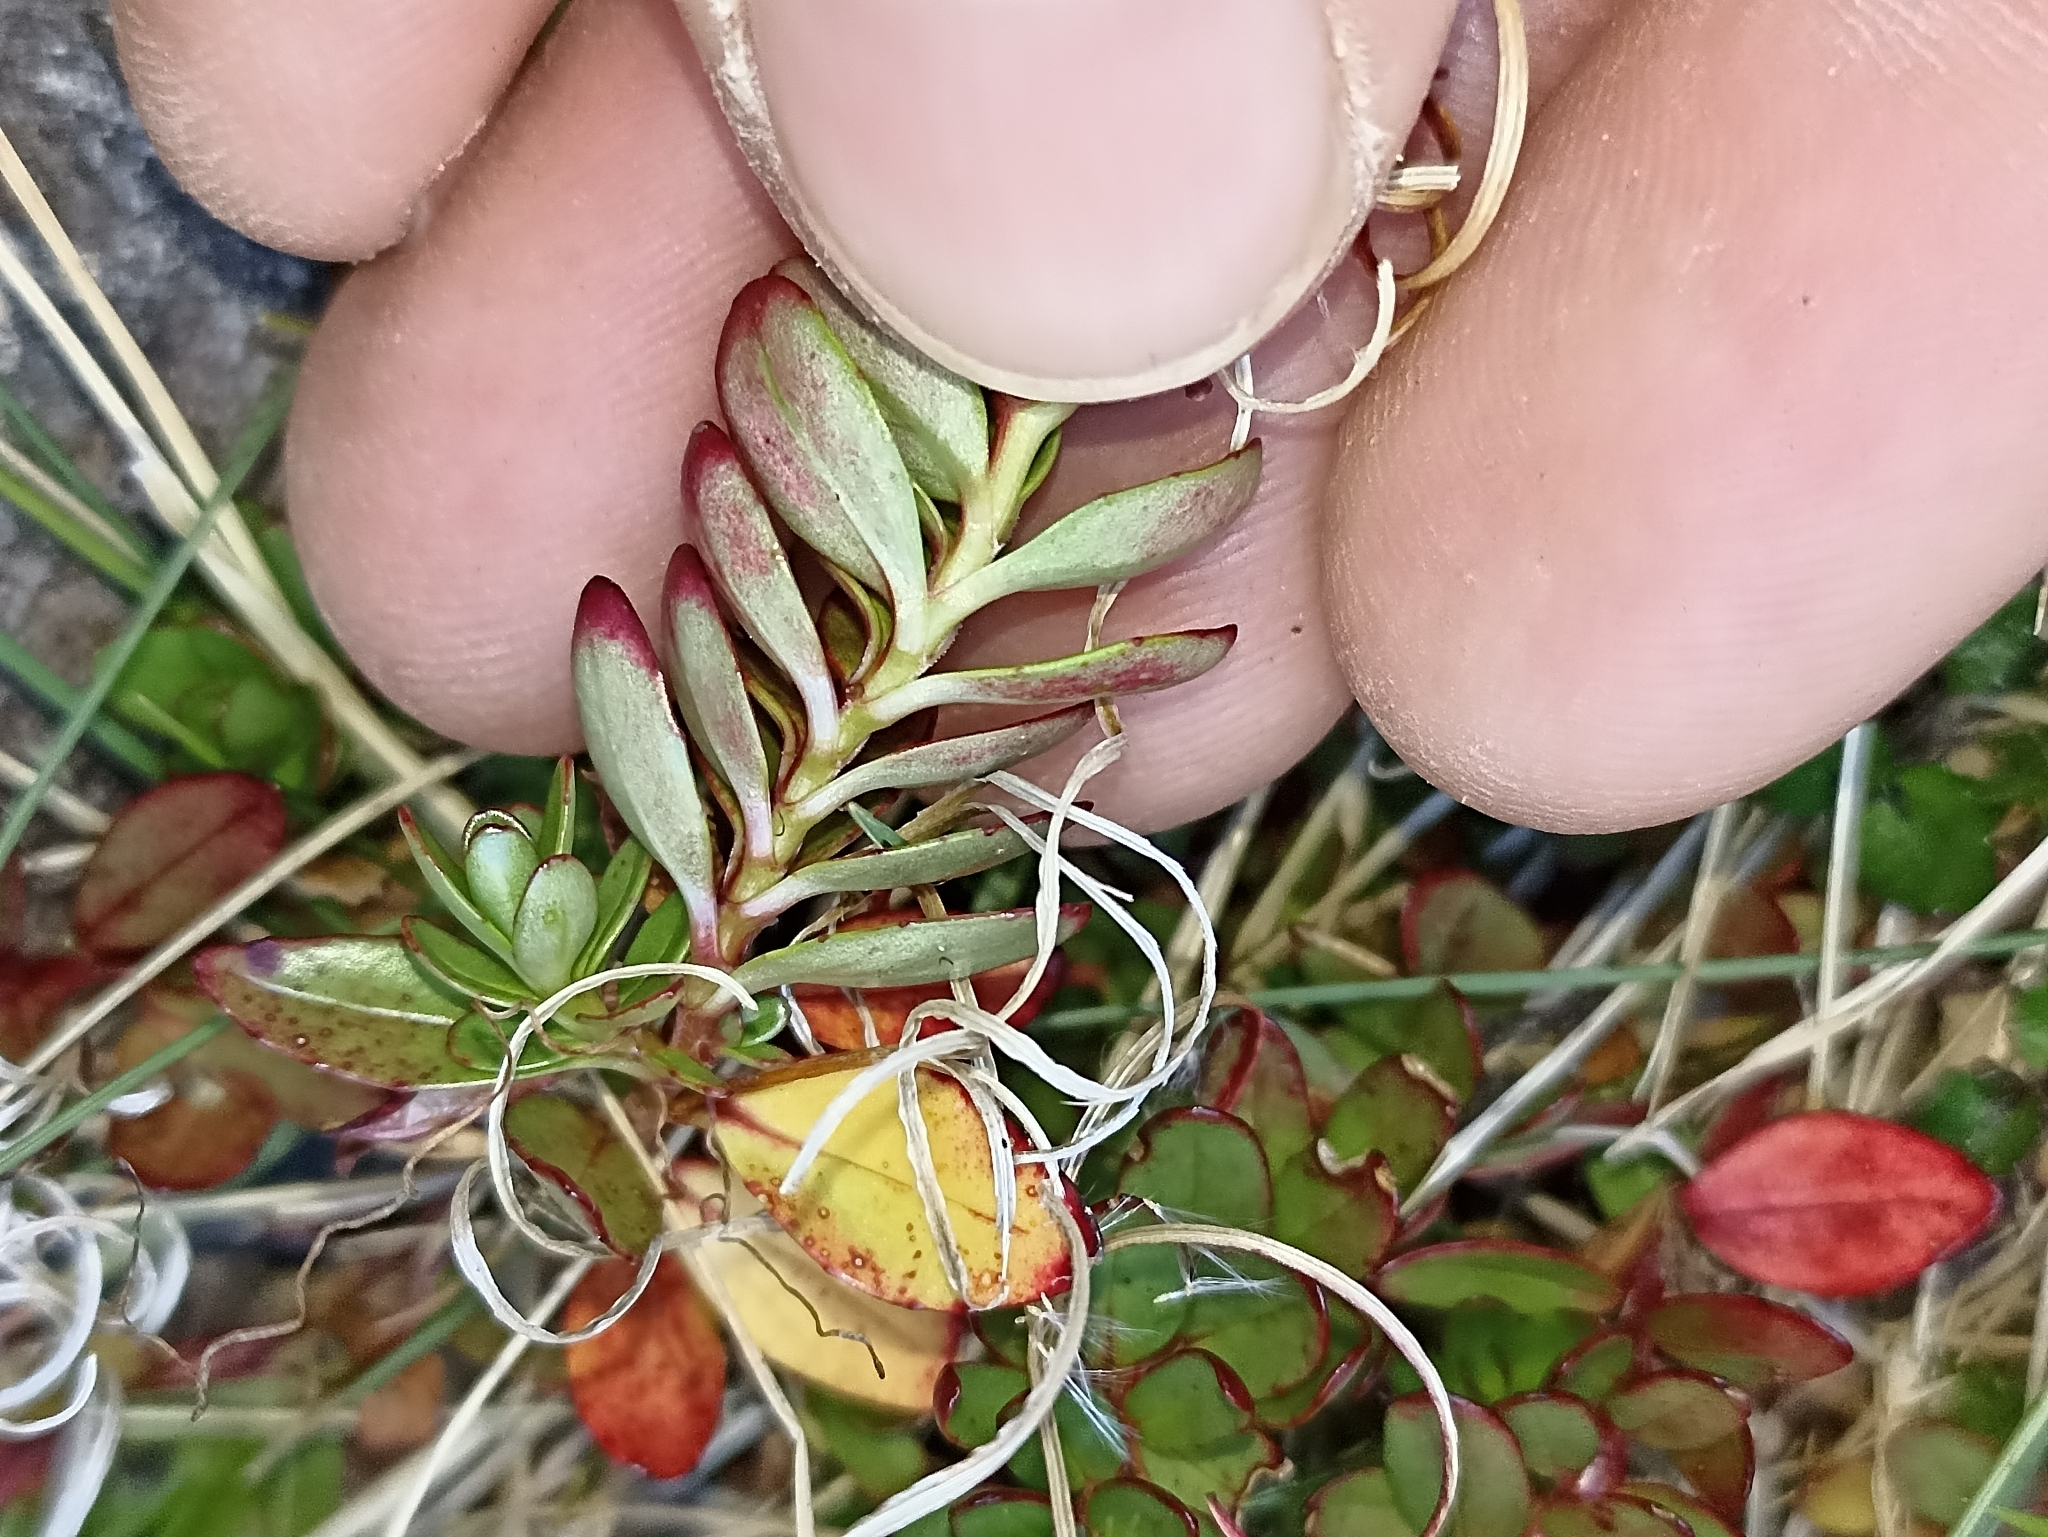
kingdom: Plantae
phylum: Tracheophyta
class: Magnoliopsida
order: Myrtales
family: Onagraceae
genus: Epilobium
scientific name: Epilobium glabellum
